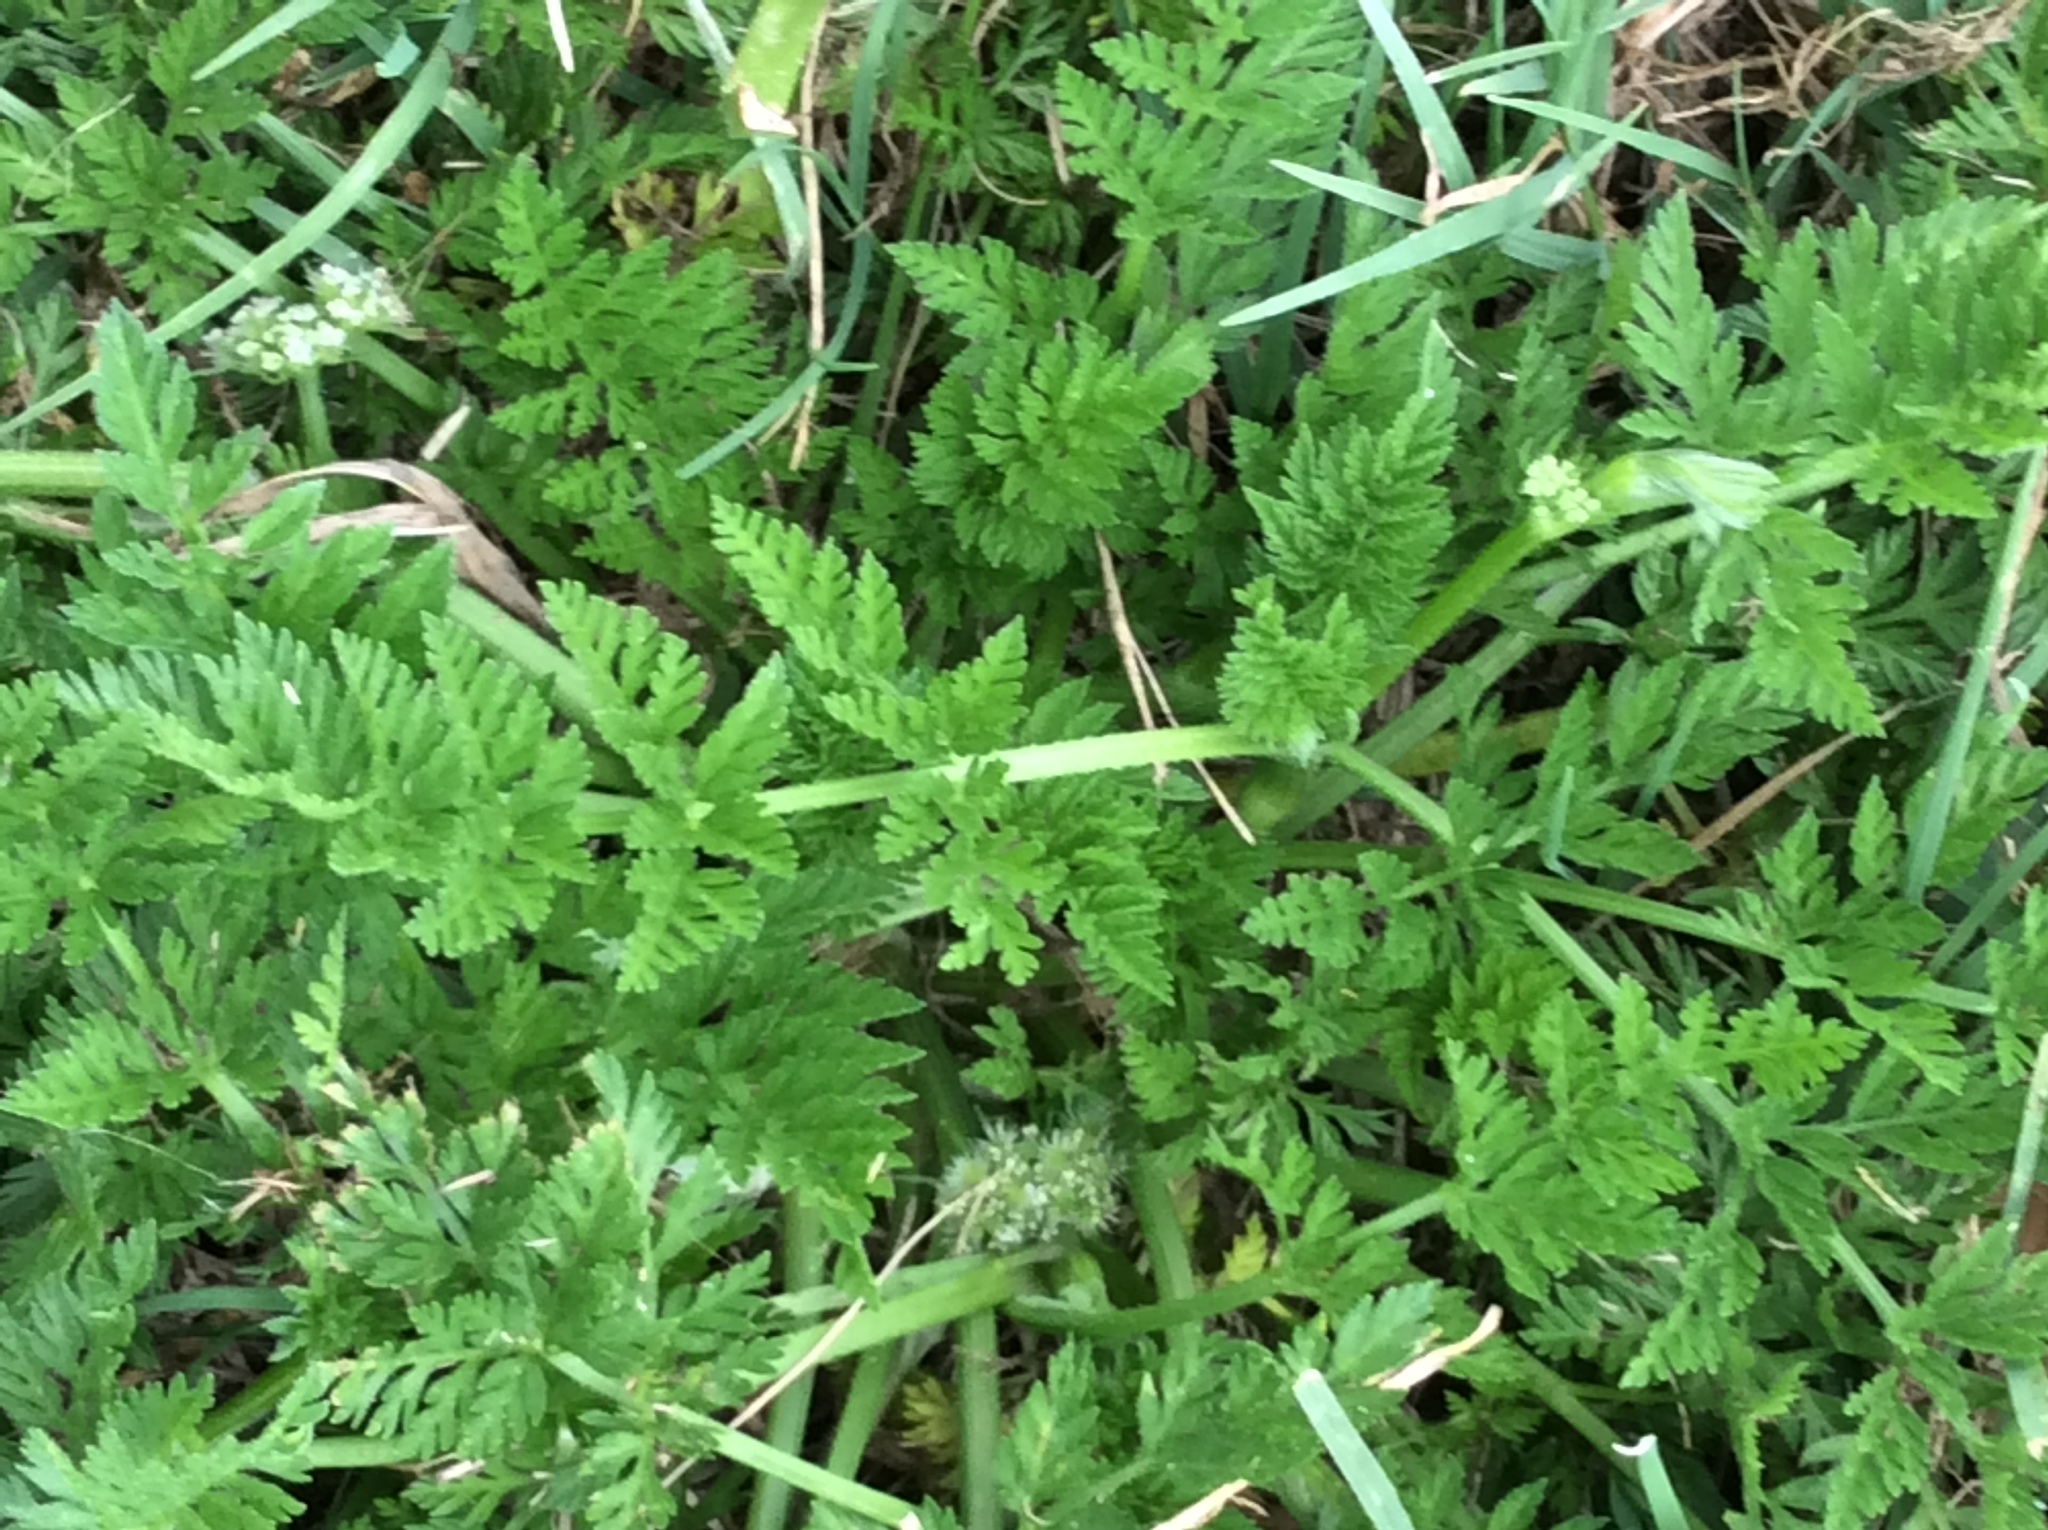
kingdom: Plantae
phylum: Tracheophyta
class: Magnoliopsida
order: Apiales
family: Apiaceae
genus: Torilis
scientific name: Torilis nodosa
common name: Knotted hedge-parsley
